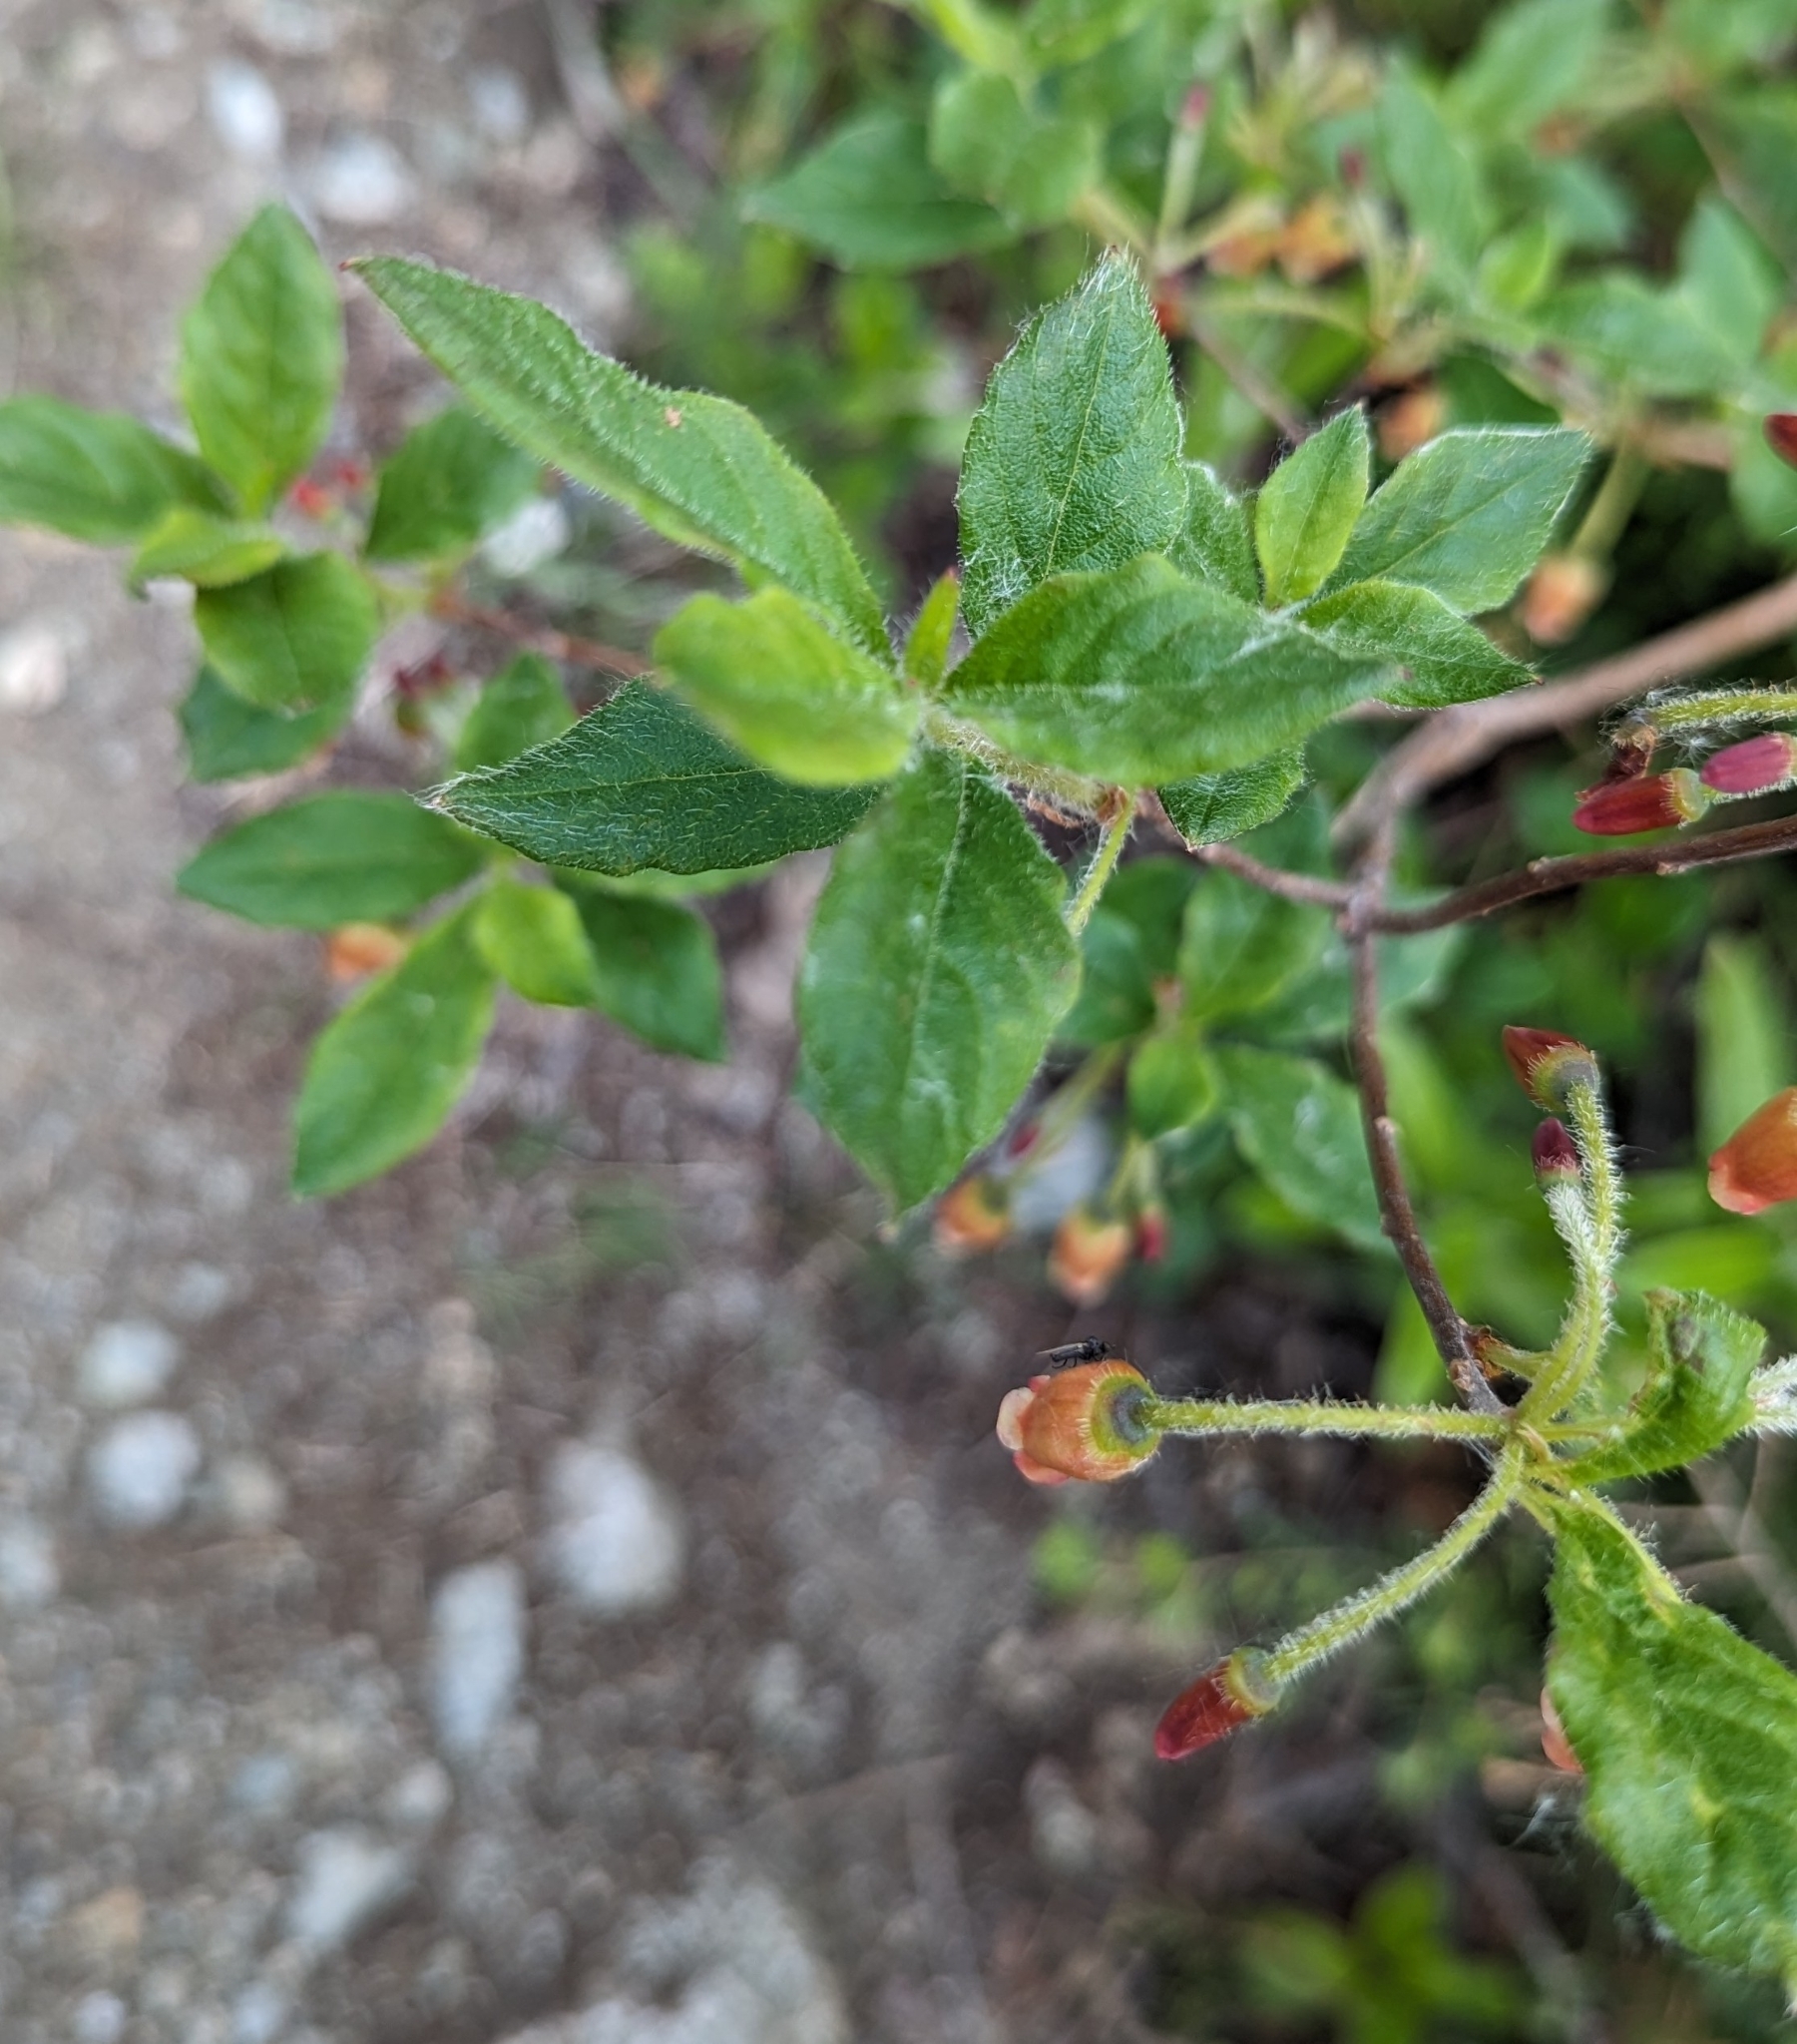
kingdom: Plantae
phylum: Tracheophyta
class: Magnoliopsida
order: Ericales
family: Ericaceae
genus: Rhododendron
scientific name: Rhododendron menziesii
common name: Pacific menziesia
